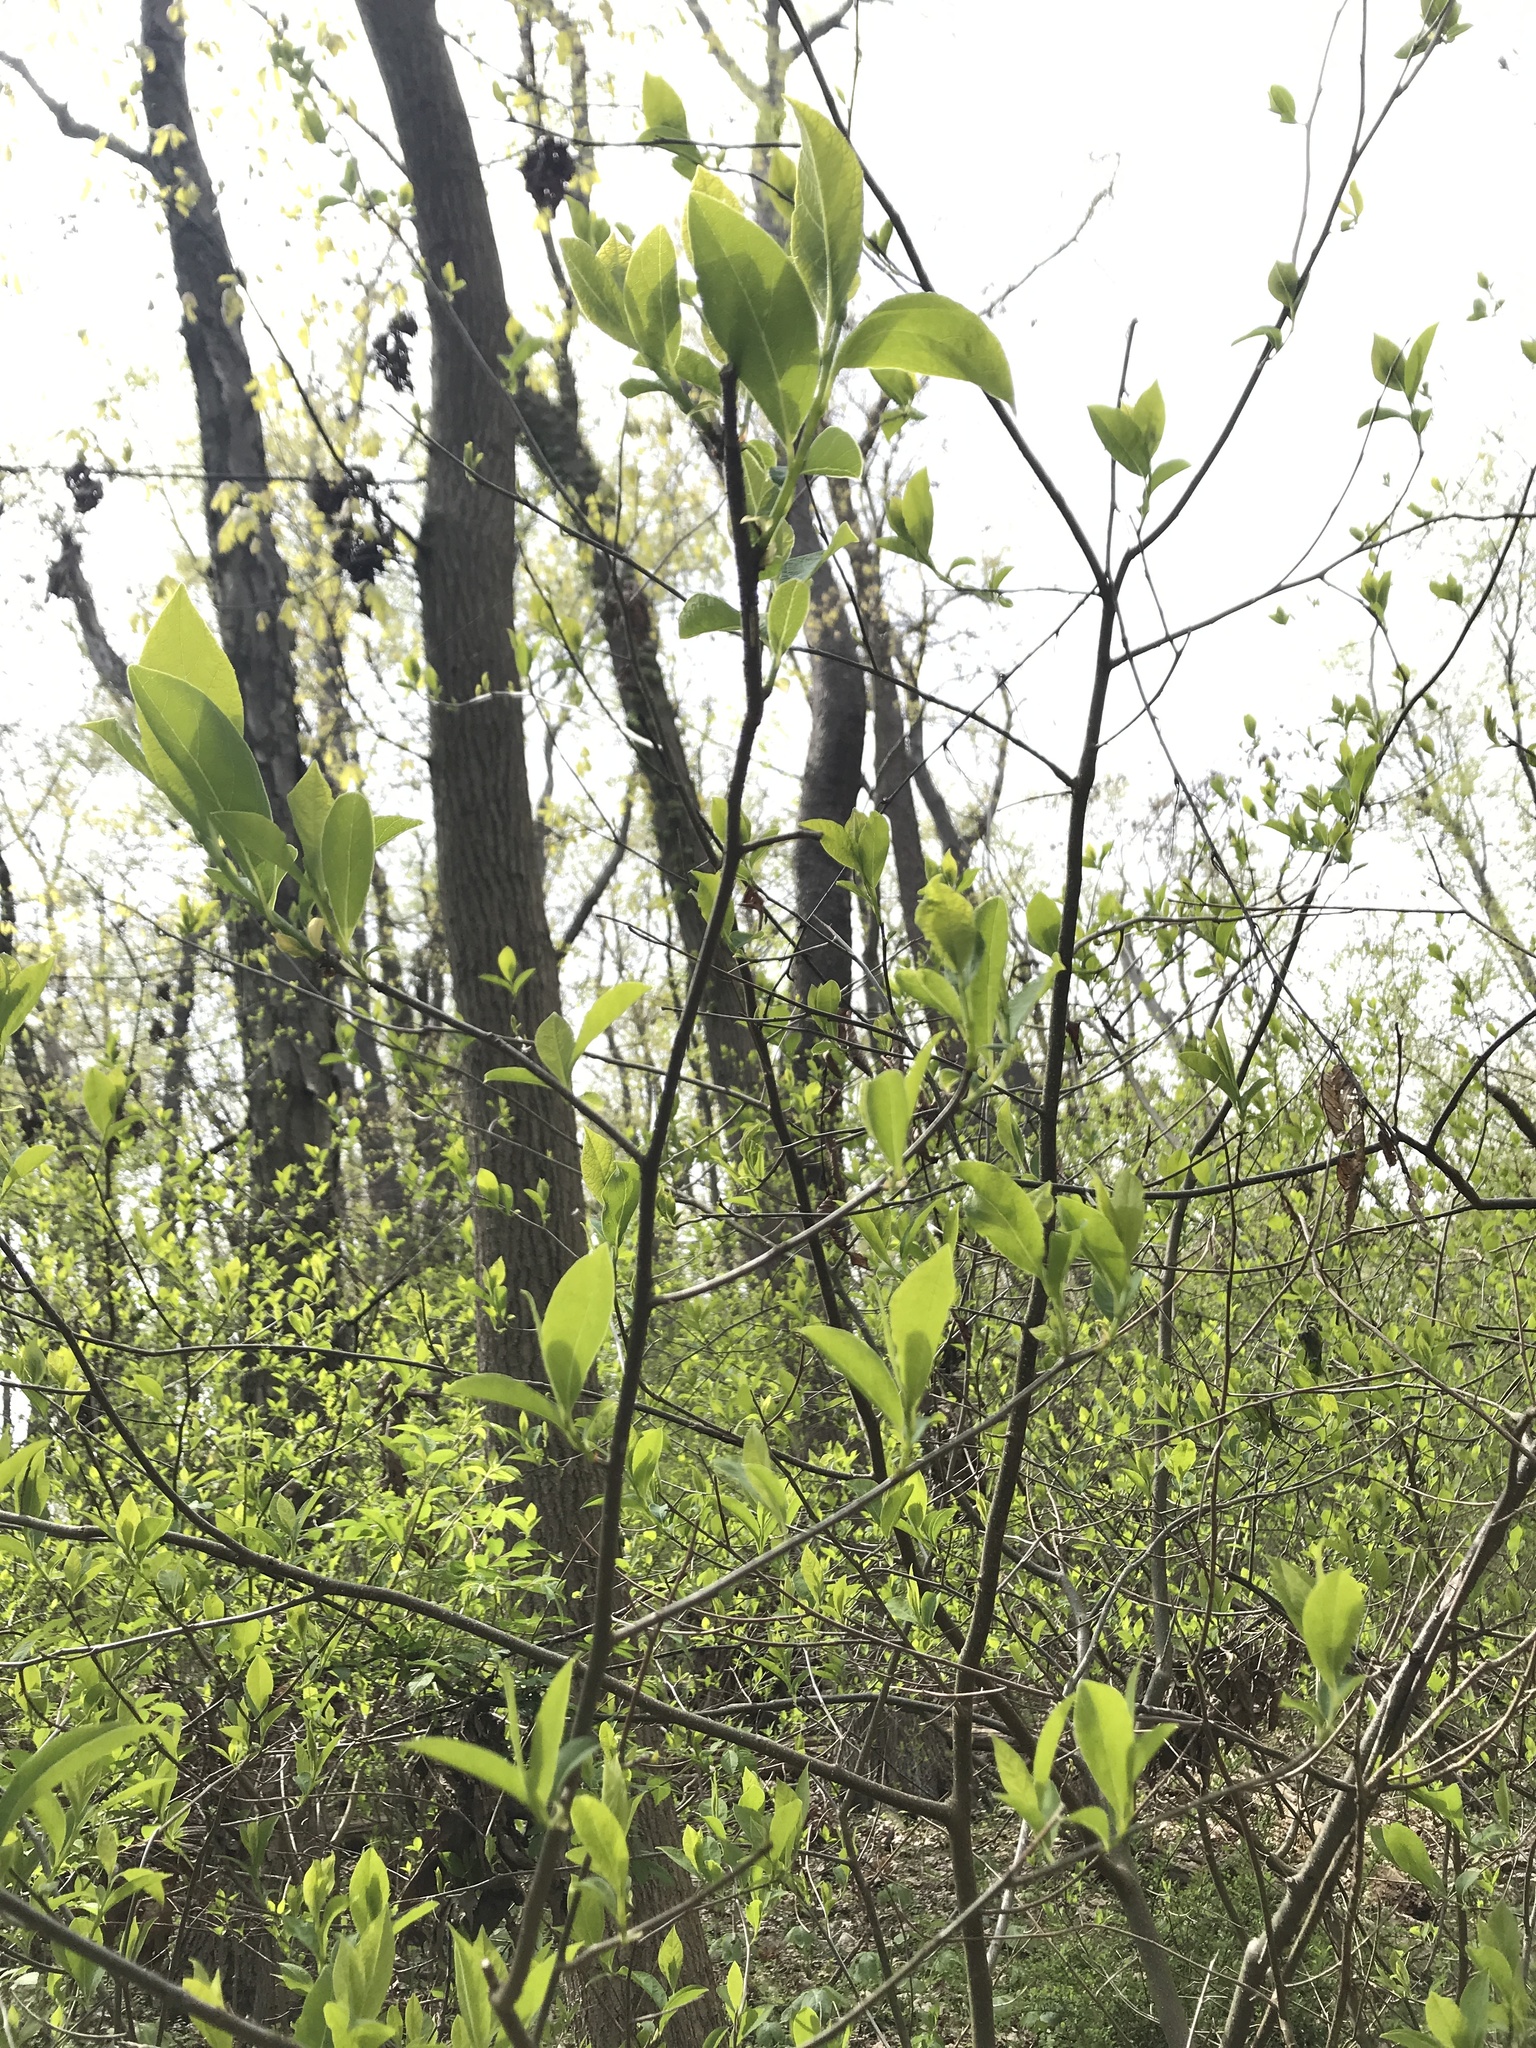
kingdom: Plantae
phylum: Tracheophyta
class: Magnoliopsida
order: Laurales
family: Lauraceae
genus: Lindera
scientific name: Lindera benzoin
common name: Spicebush
